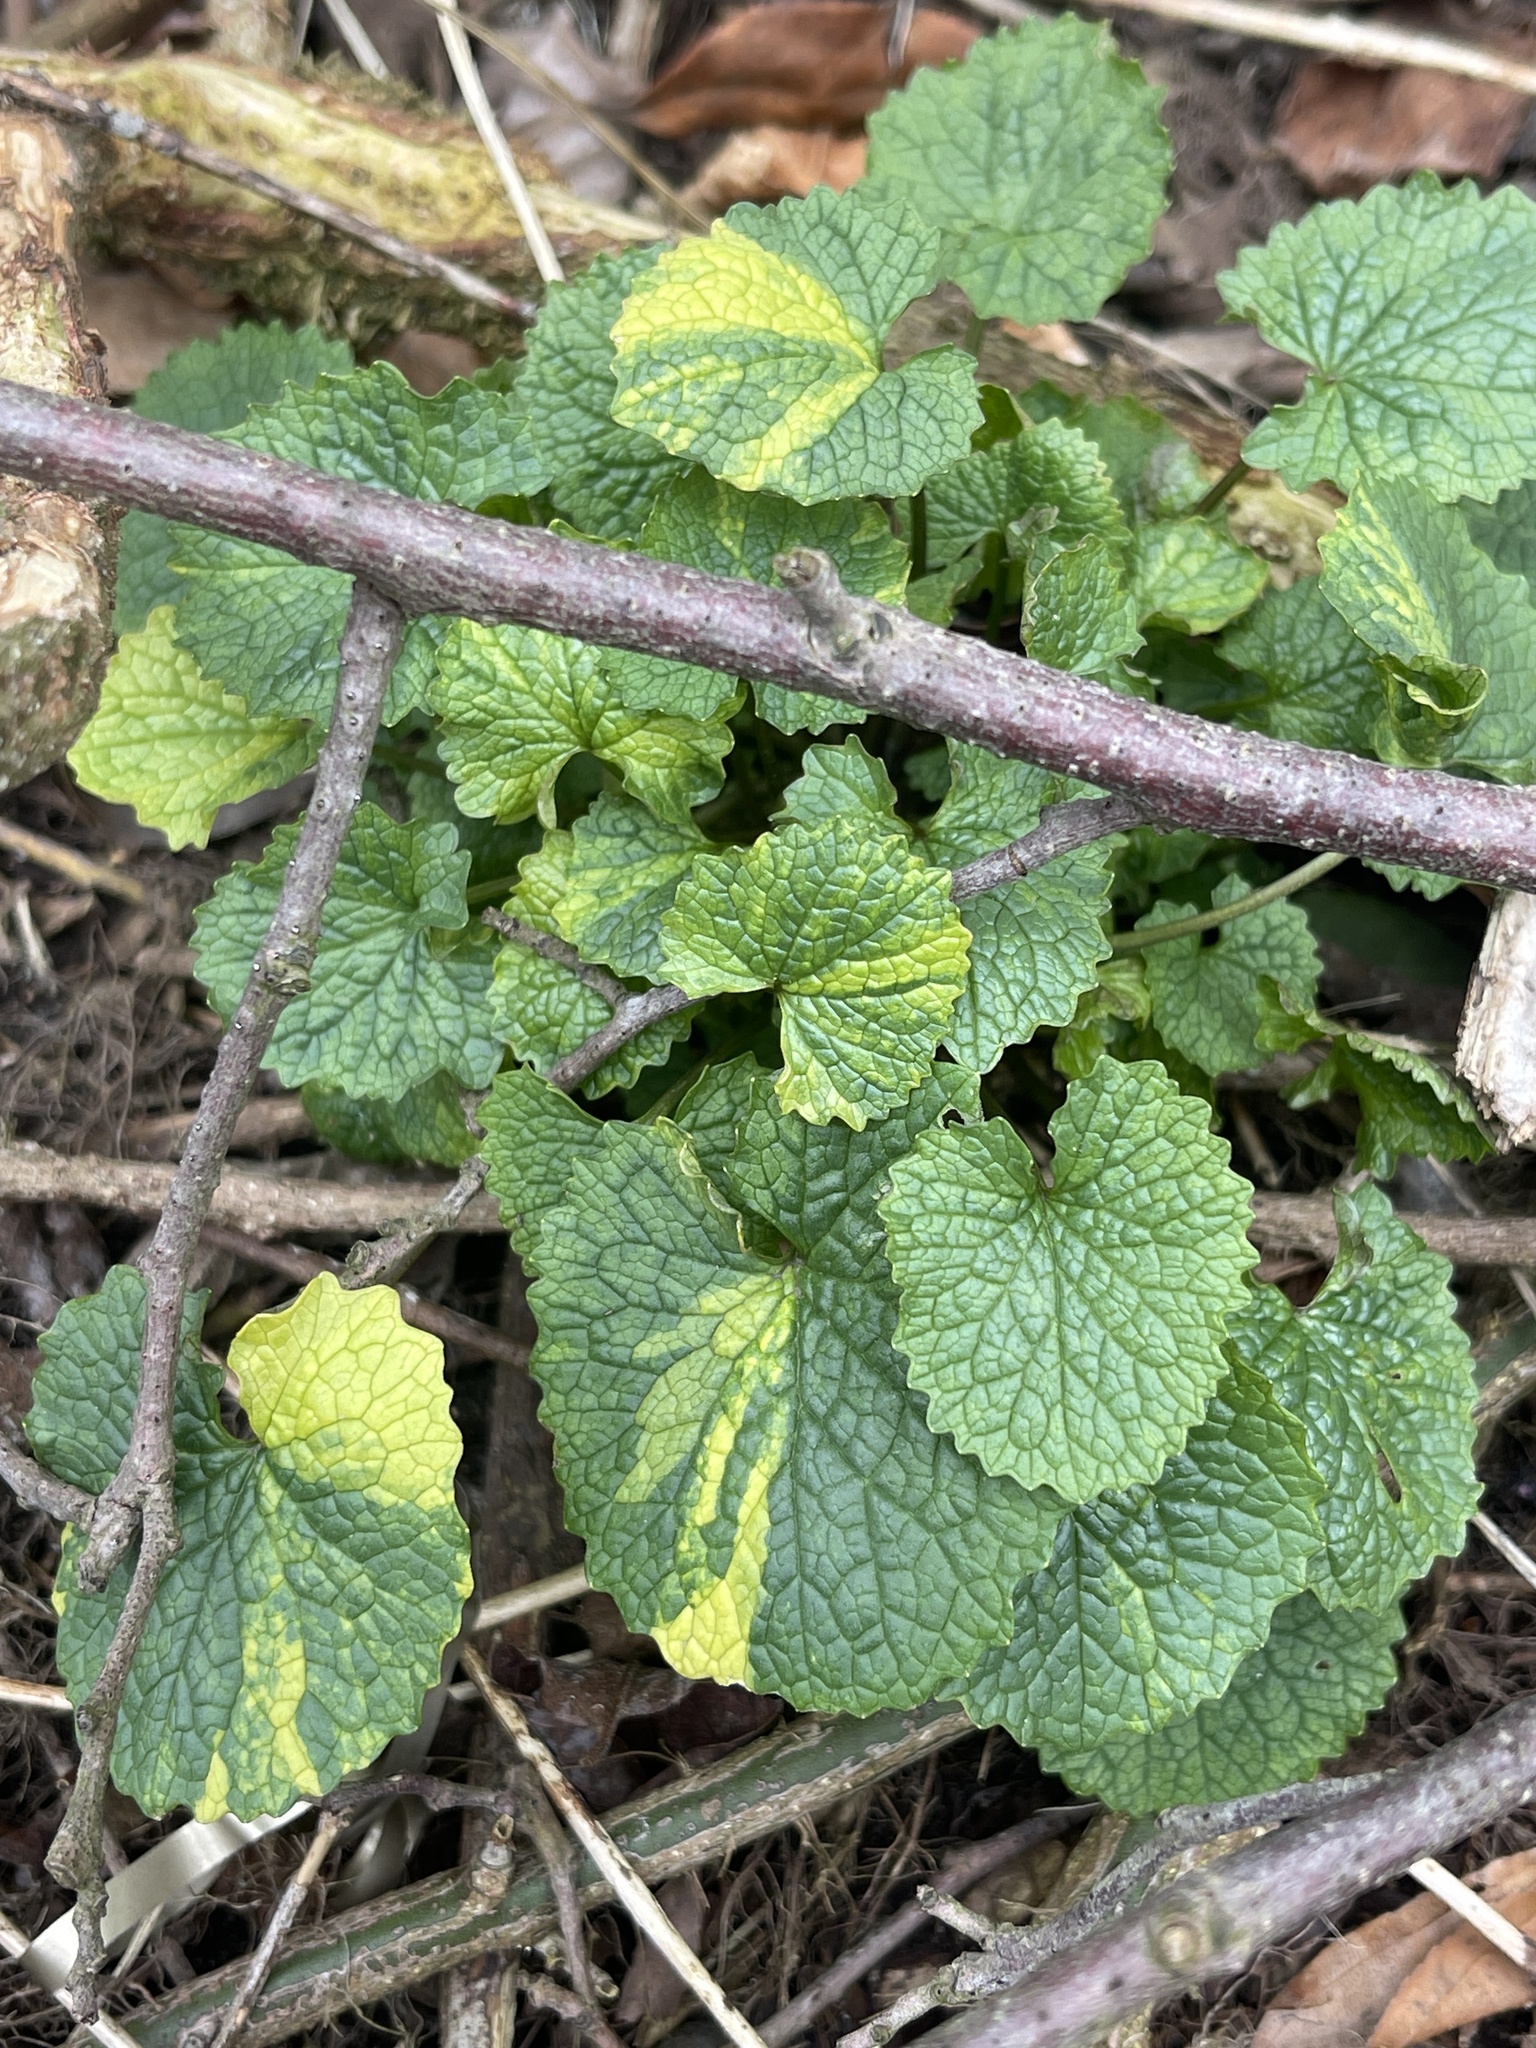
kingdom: Plantae
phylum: Tracheophyta
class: Magnoliopsida
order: Brassicales
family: Brassicaceae
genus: Alliaria
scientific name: Alliaria petiolata
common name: Garlic mustard
